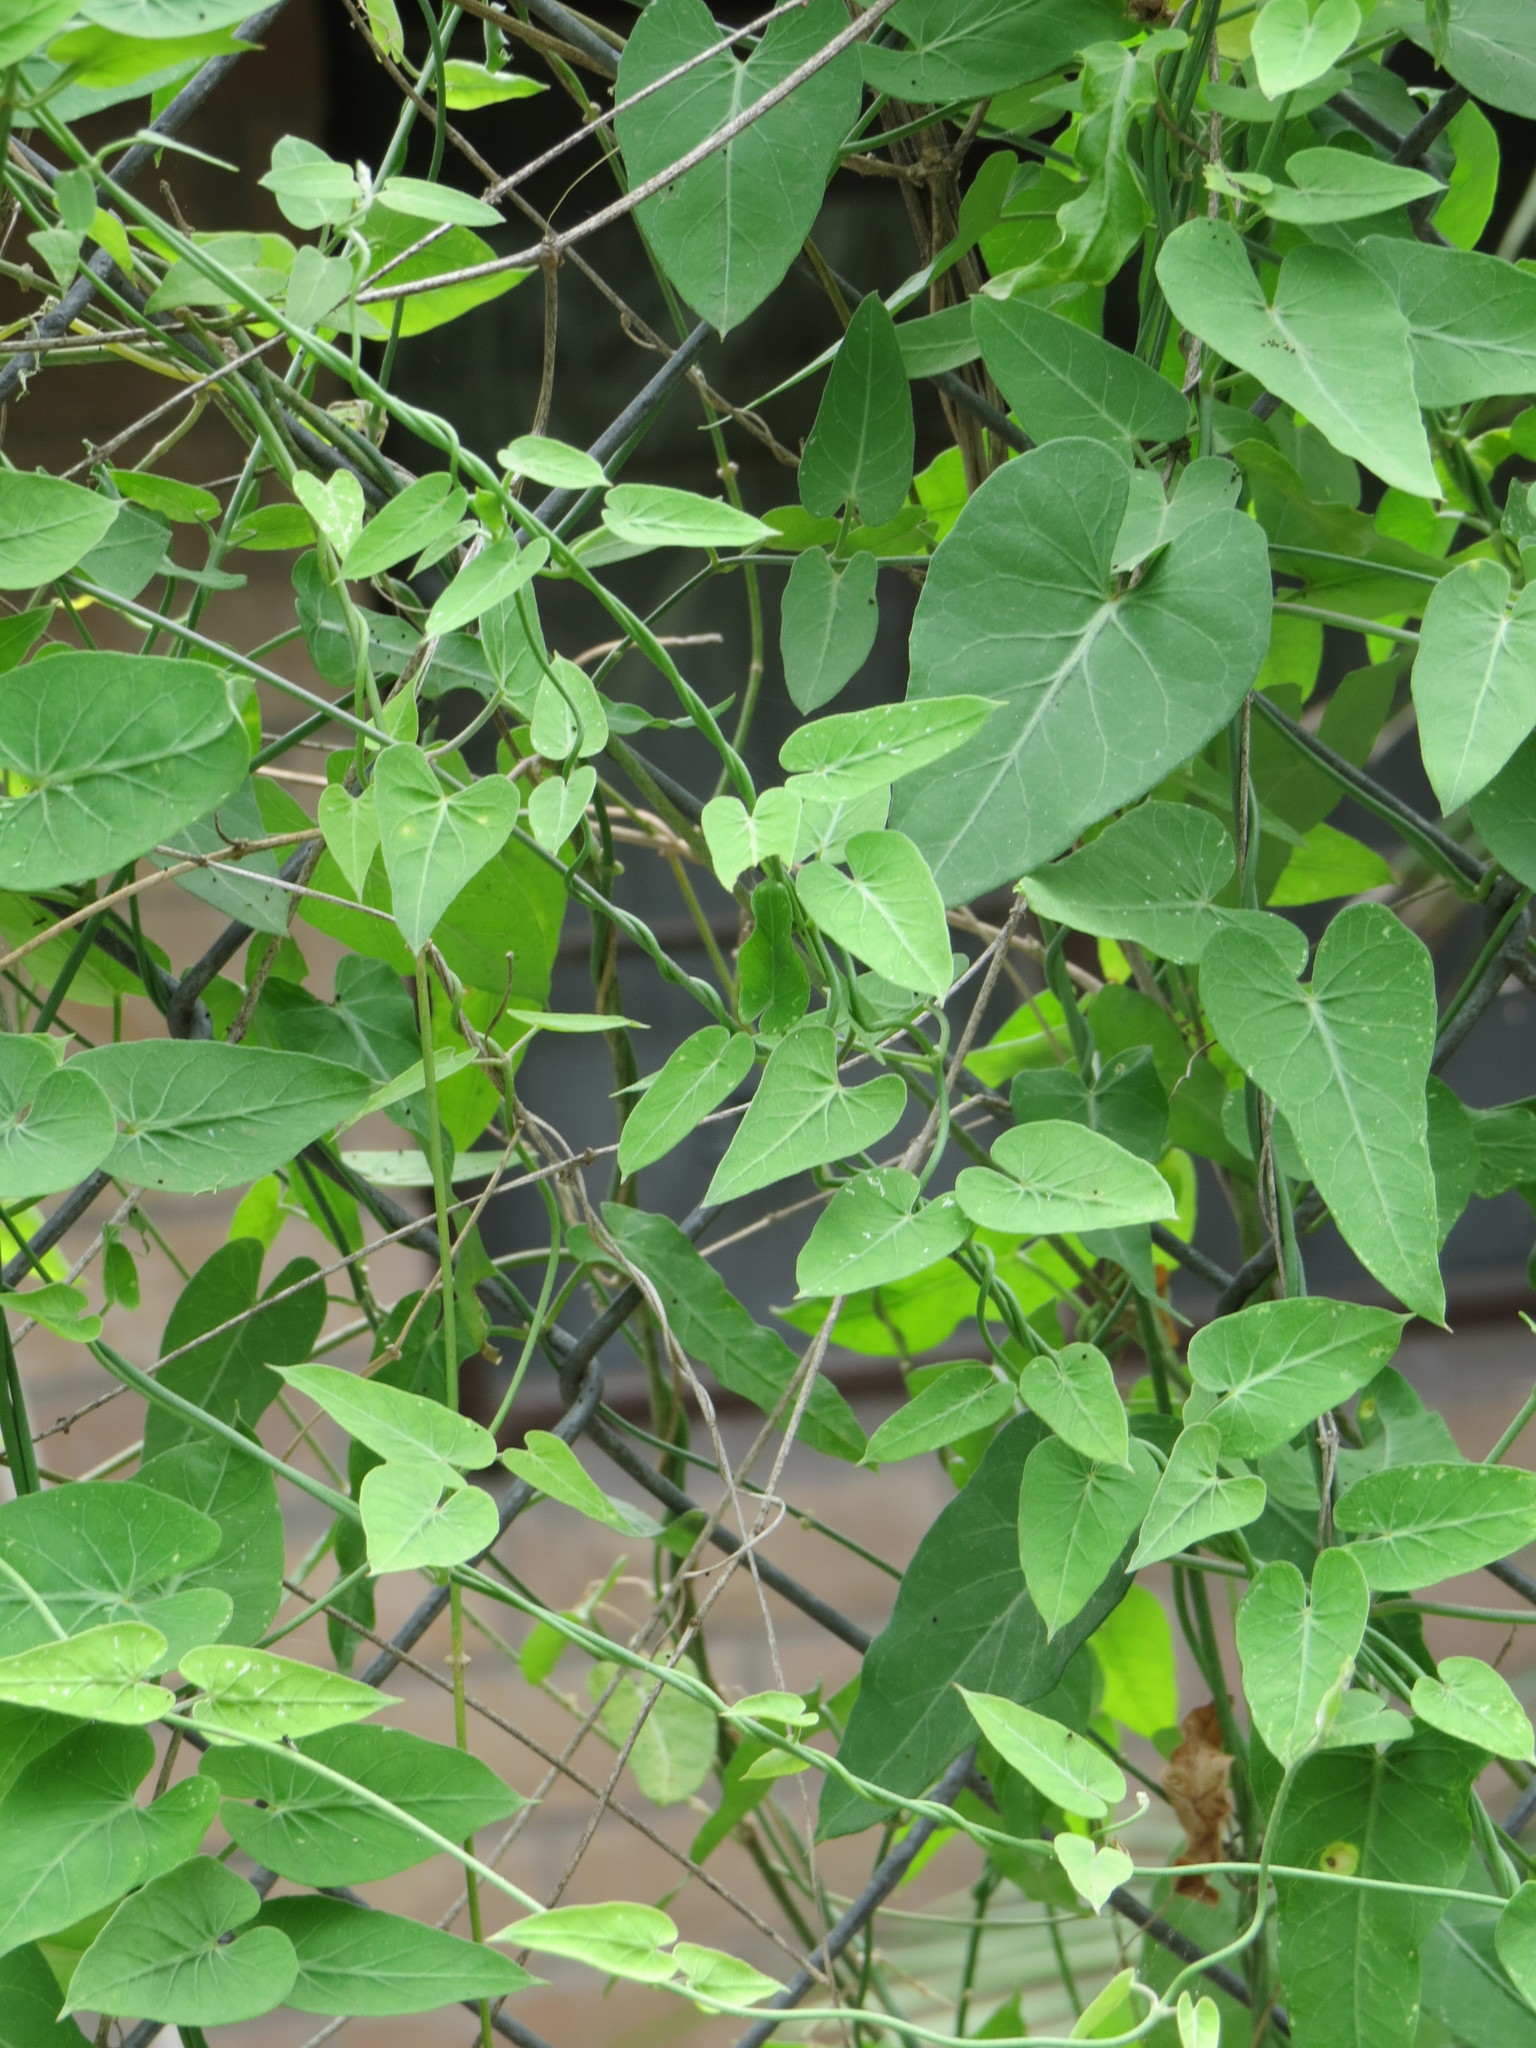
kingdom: Plantae
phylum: Tracheophyta
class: Magnoliopsida
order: Gentianales
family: Apocynaceae
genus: Funastrum
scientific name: Funastrum cynanchoides
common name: Climbing-milkweed
